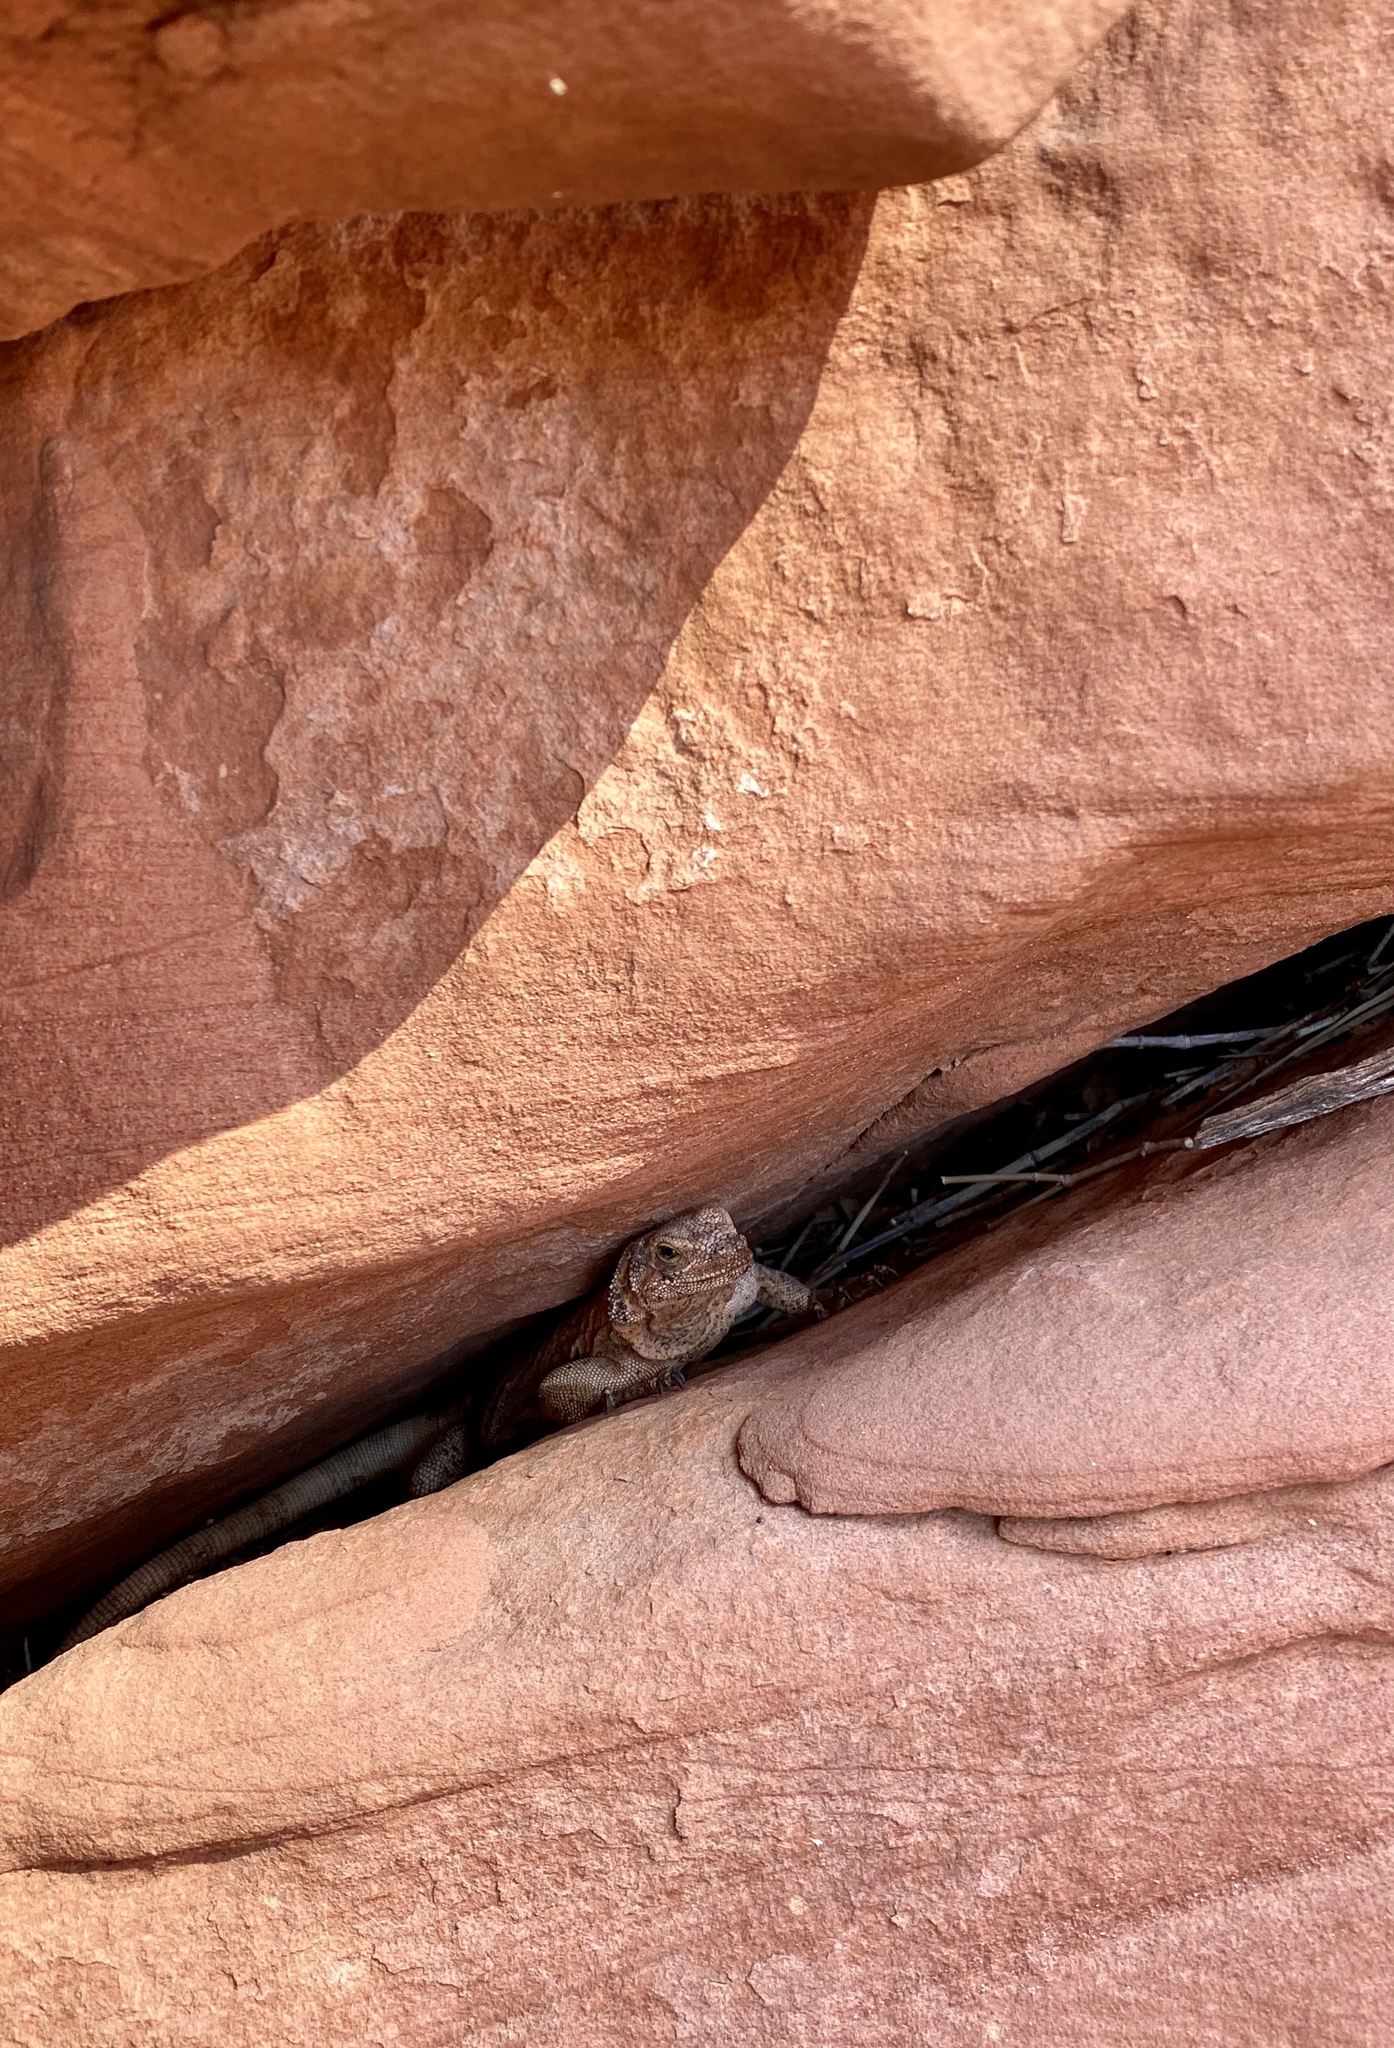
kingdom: Animalia
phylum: Chordata
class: Squamata
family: Iguanidae
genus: Sauromalus
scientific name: Sauromalus ater
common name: Northern chuckwalla
